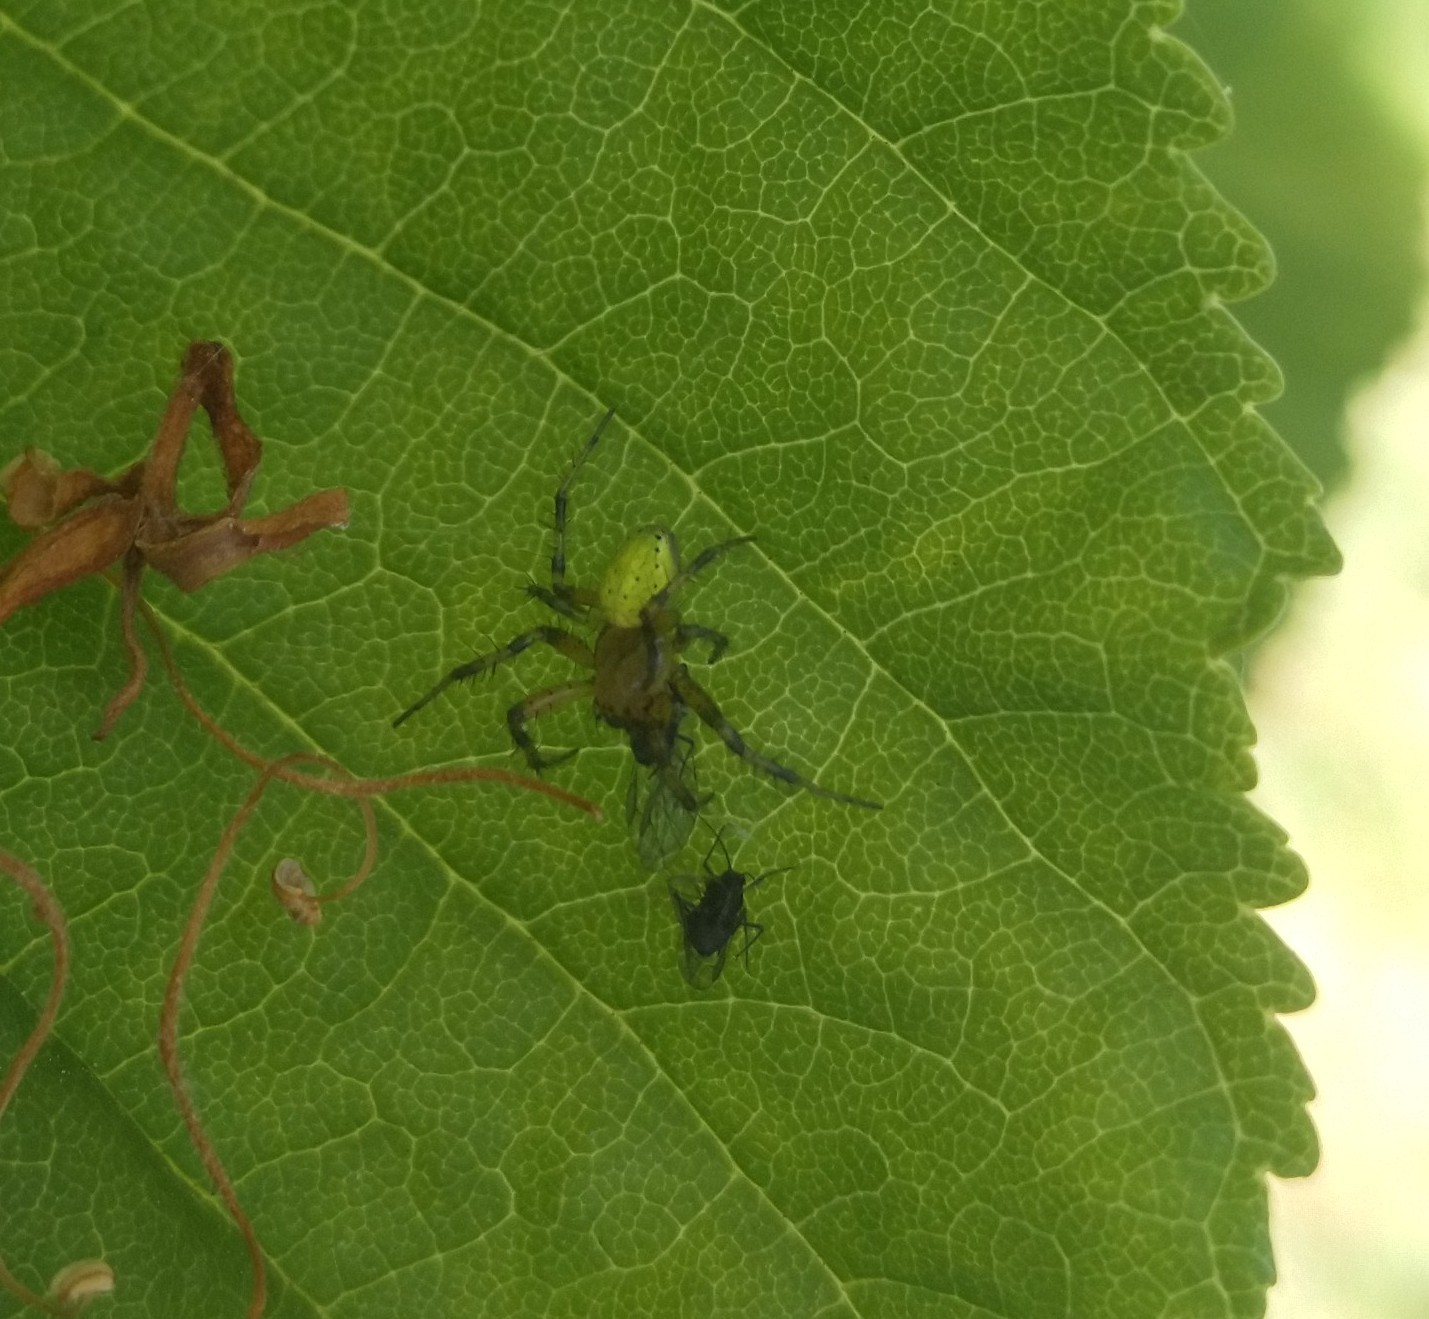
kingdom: Animalia
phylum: Arthropoda
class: Arachnida
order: Araneae
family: Araneidae
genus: Araniella
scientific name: Araniella
